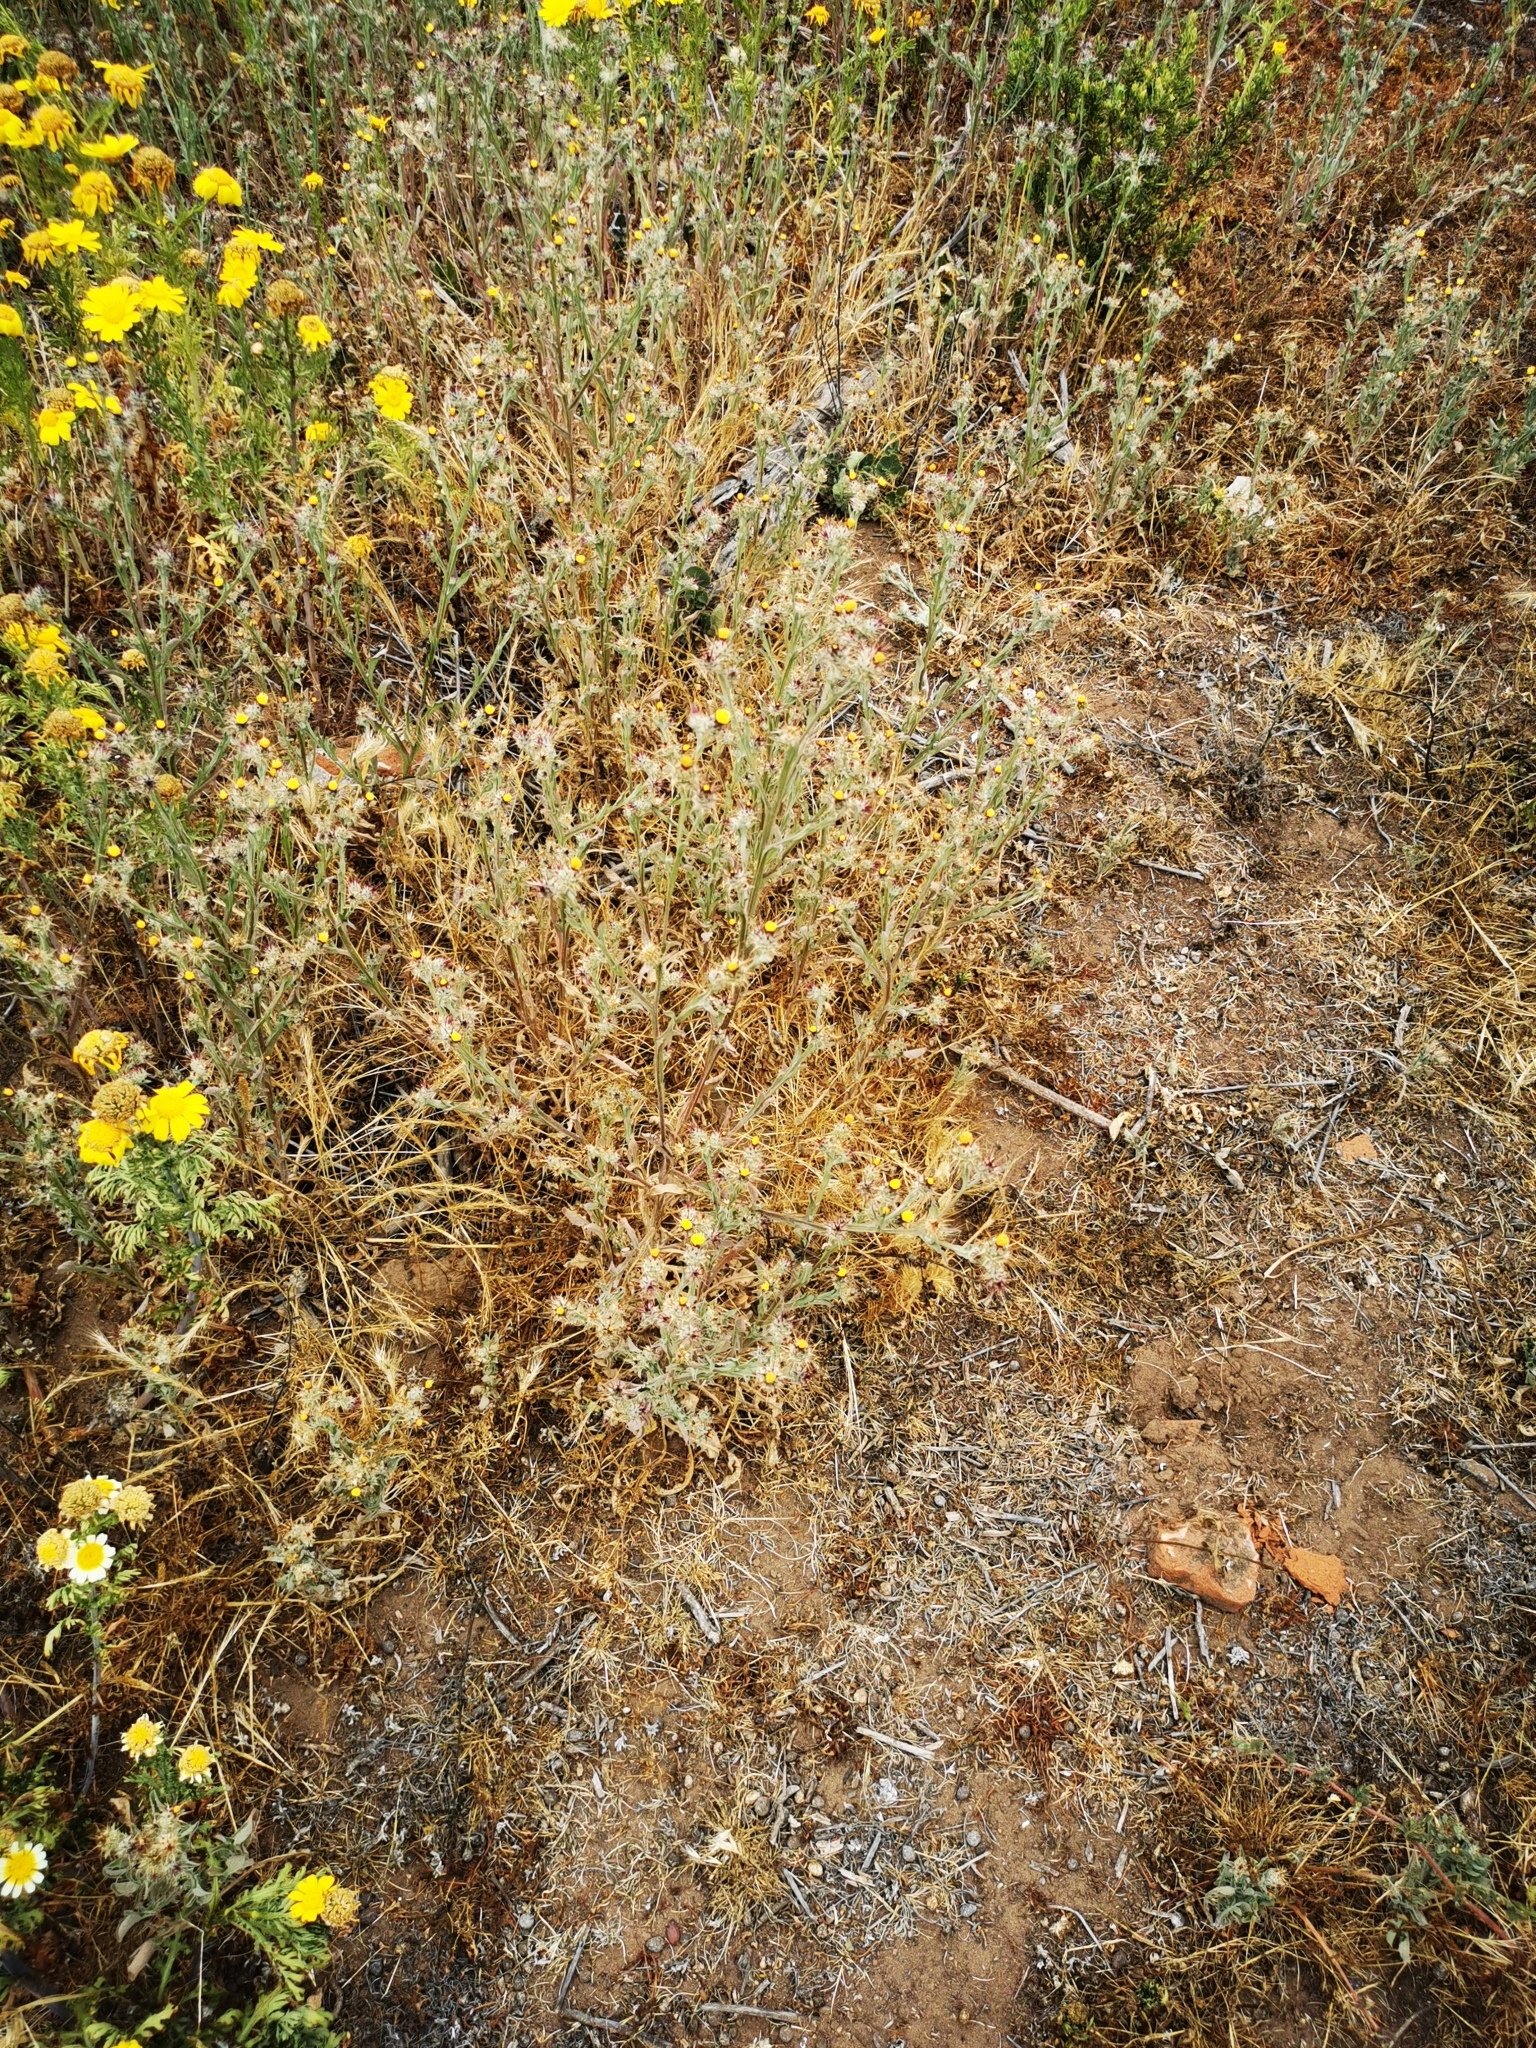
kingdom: Plantae
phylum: Tracheophyta
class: Magnoliopsida
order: Asterales
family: Asteraceae
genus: Centaurea
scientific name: Centaurea melitensis
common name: Maltese star-thistle
